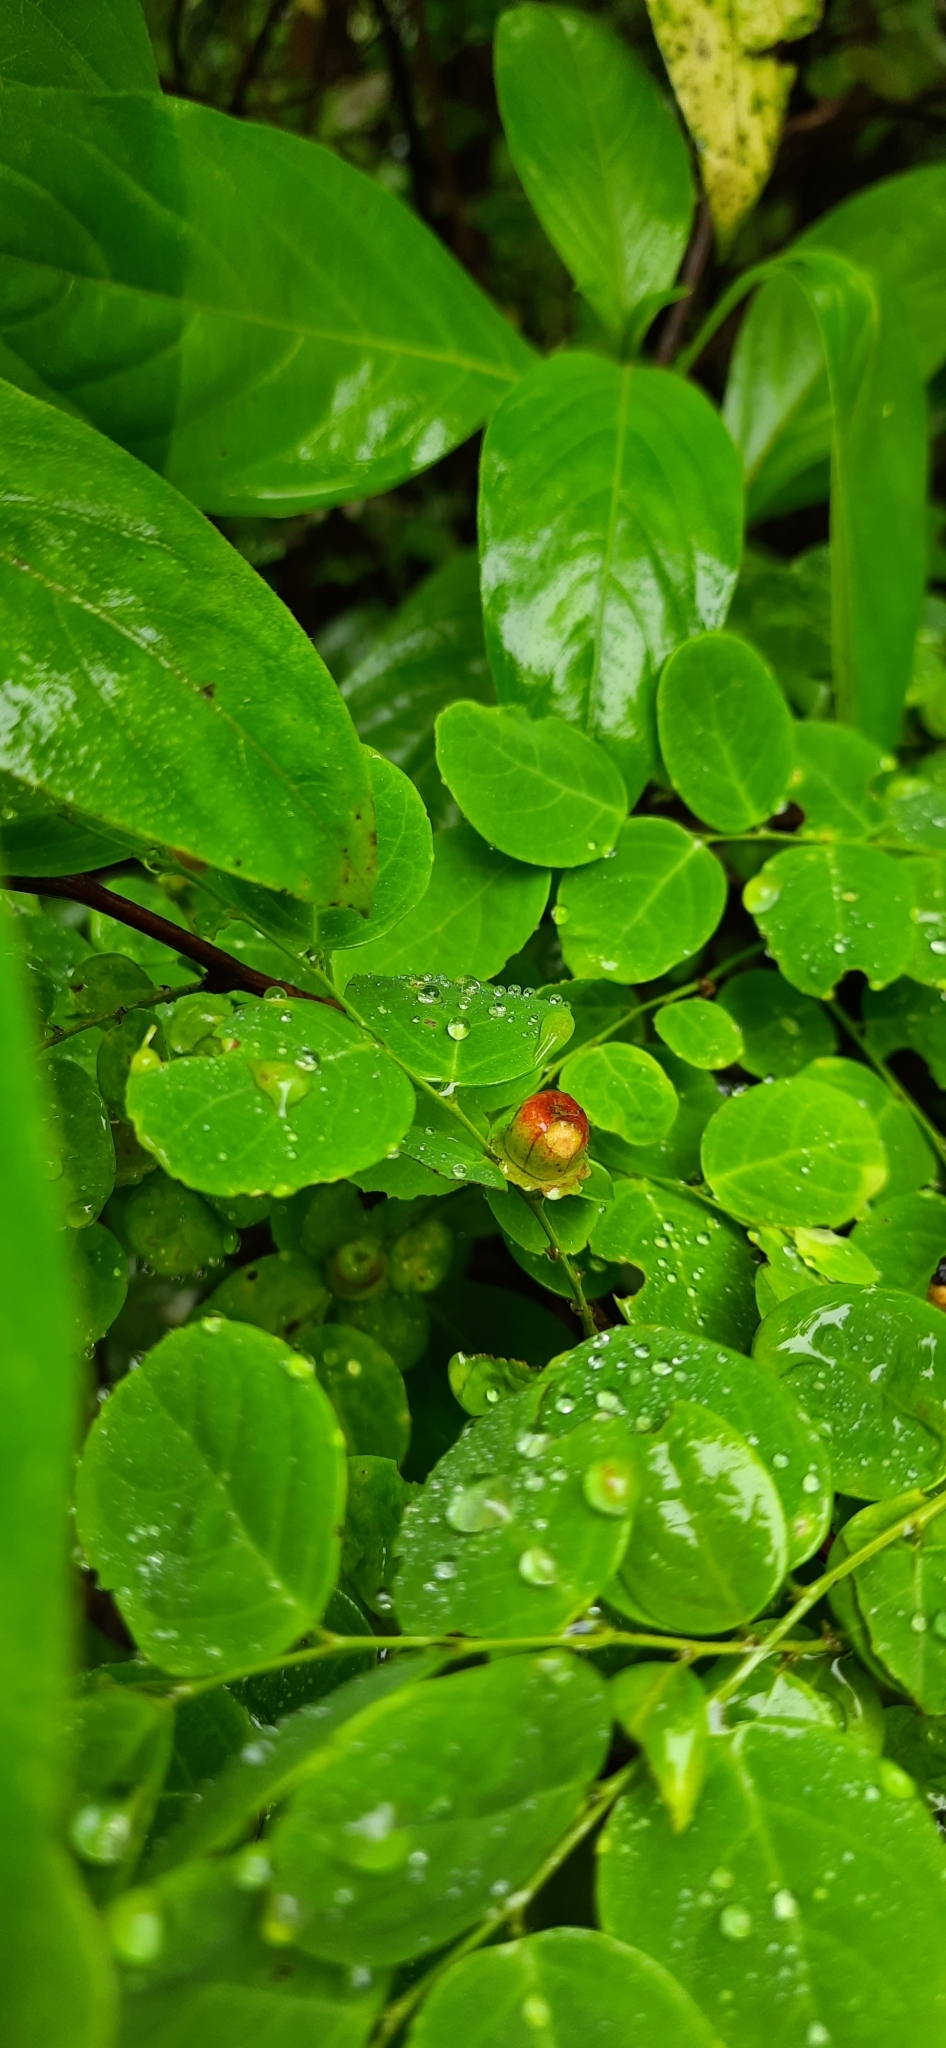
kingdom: Plantae
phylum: Tracheophyta
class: Magnoliopsida
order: Malpighiales
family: Phyllanthaceae
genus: Breynia
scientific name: Breynia retusa
